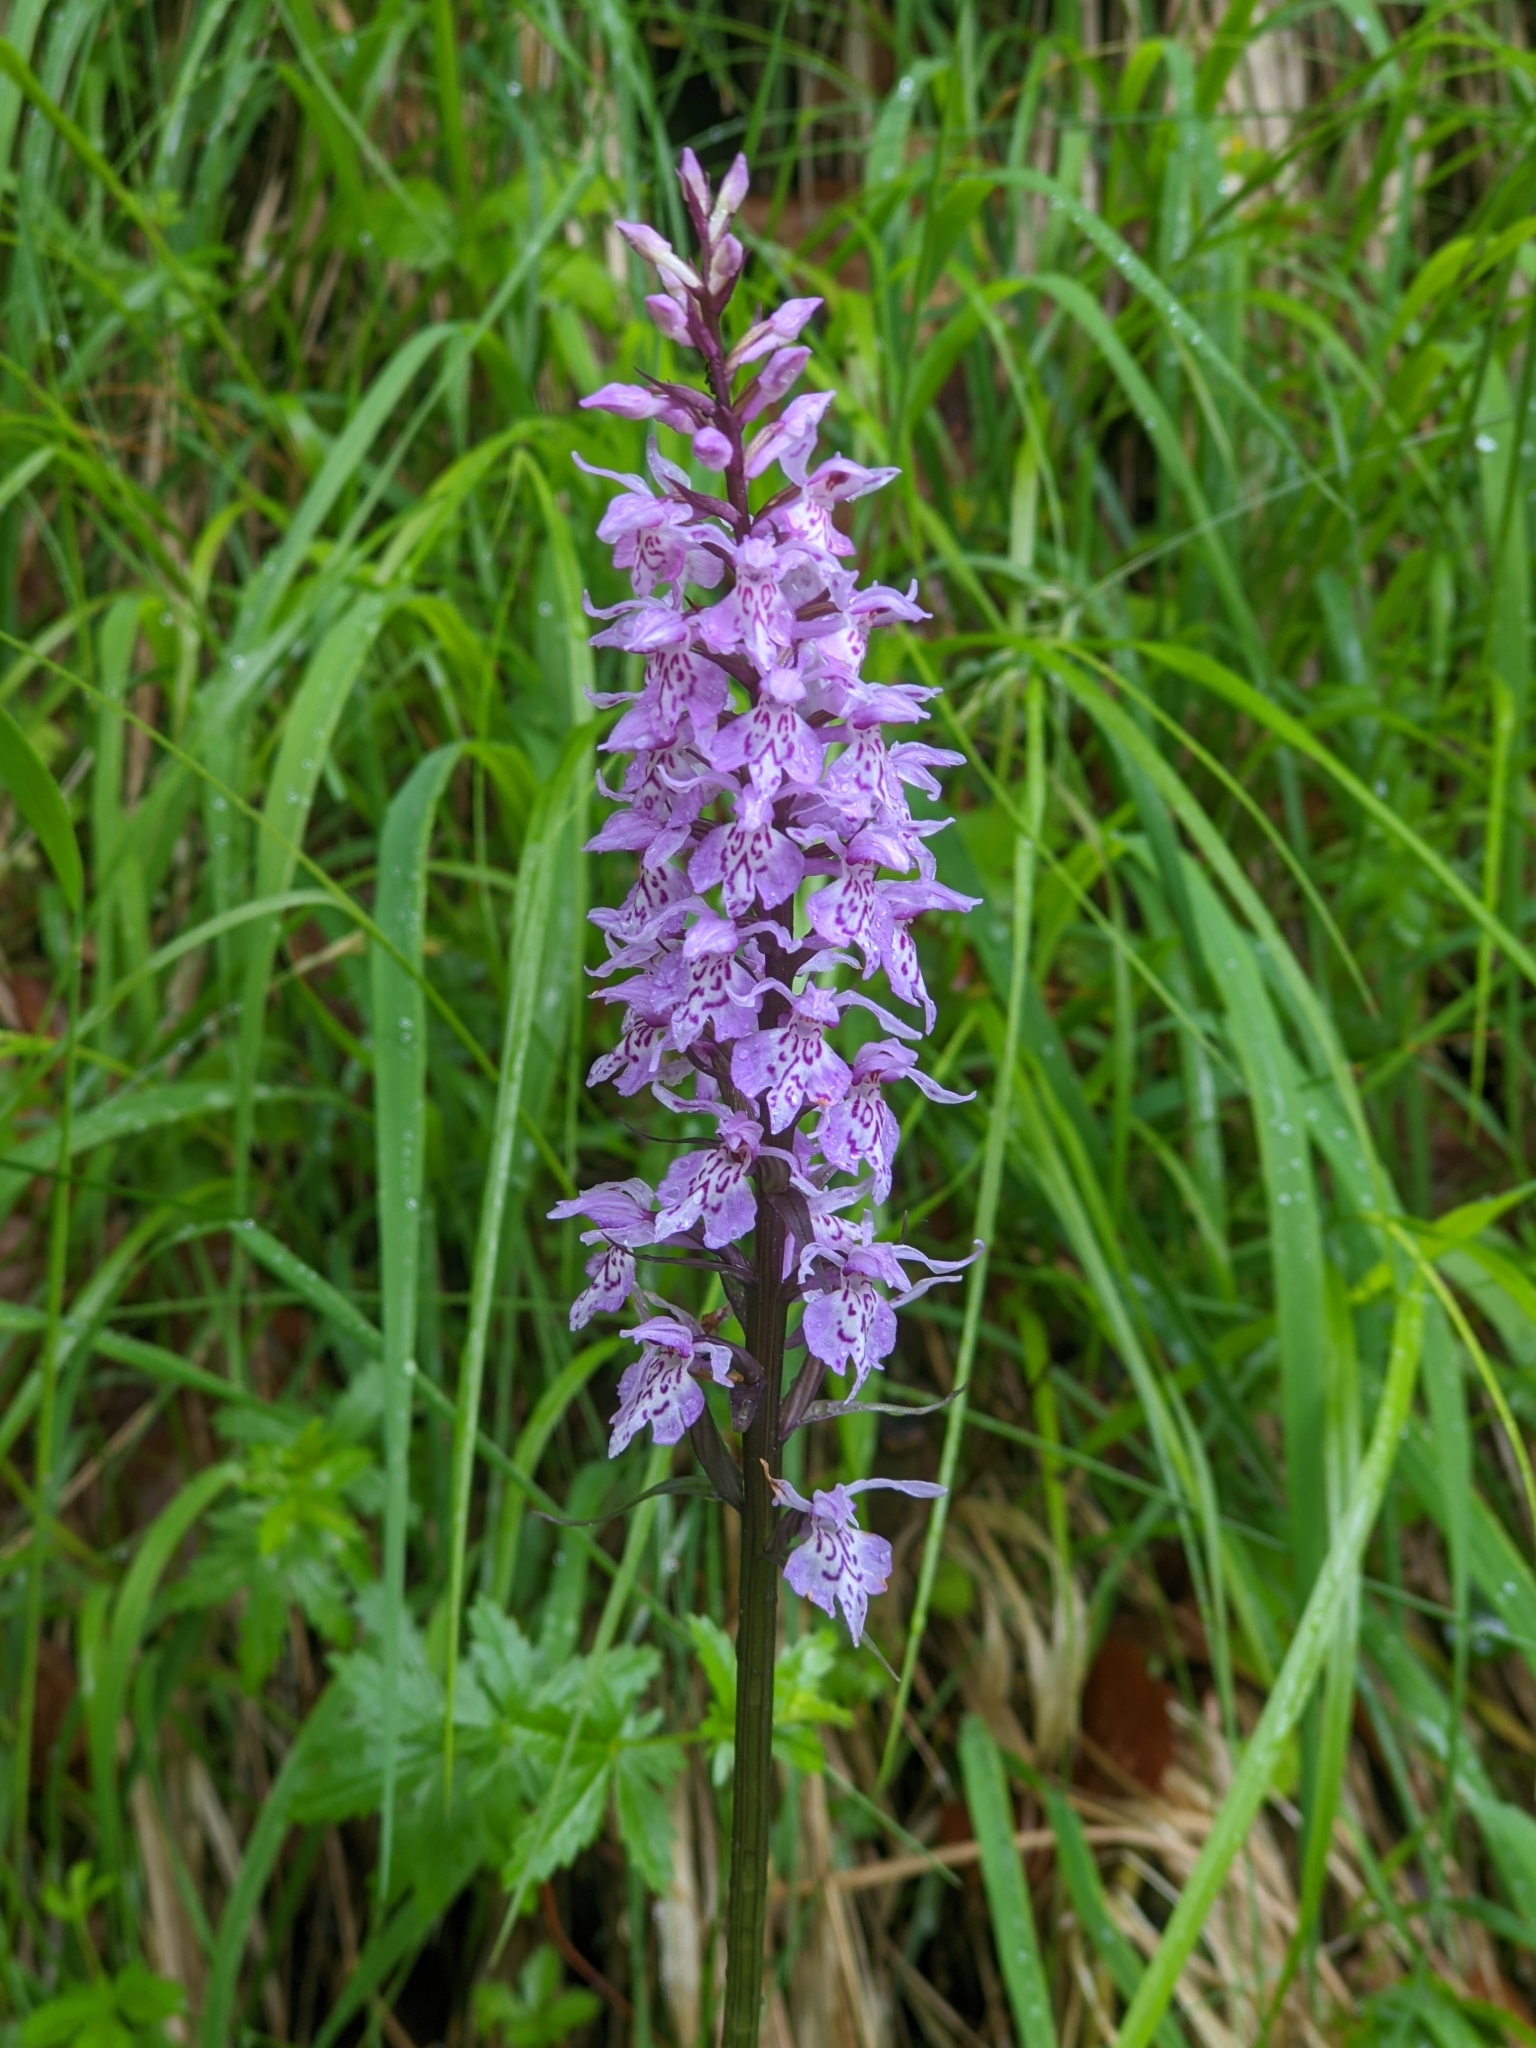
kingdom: Plantae
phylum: Tracheophyta
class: Liliopsida
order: Asparagales
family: Orchidaceae
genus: Dactylorhiza
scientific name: Dactylorhiza maculata
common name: Heath spotted-orchid
